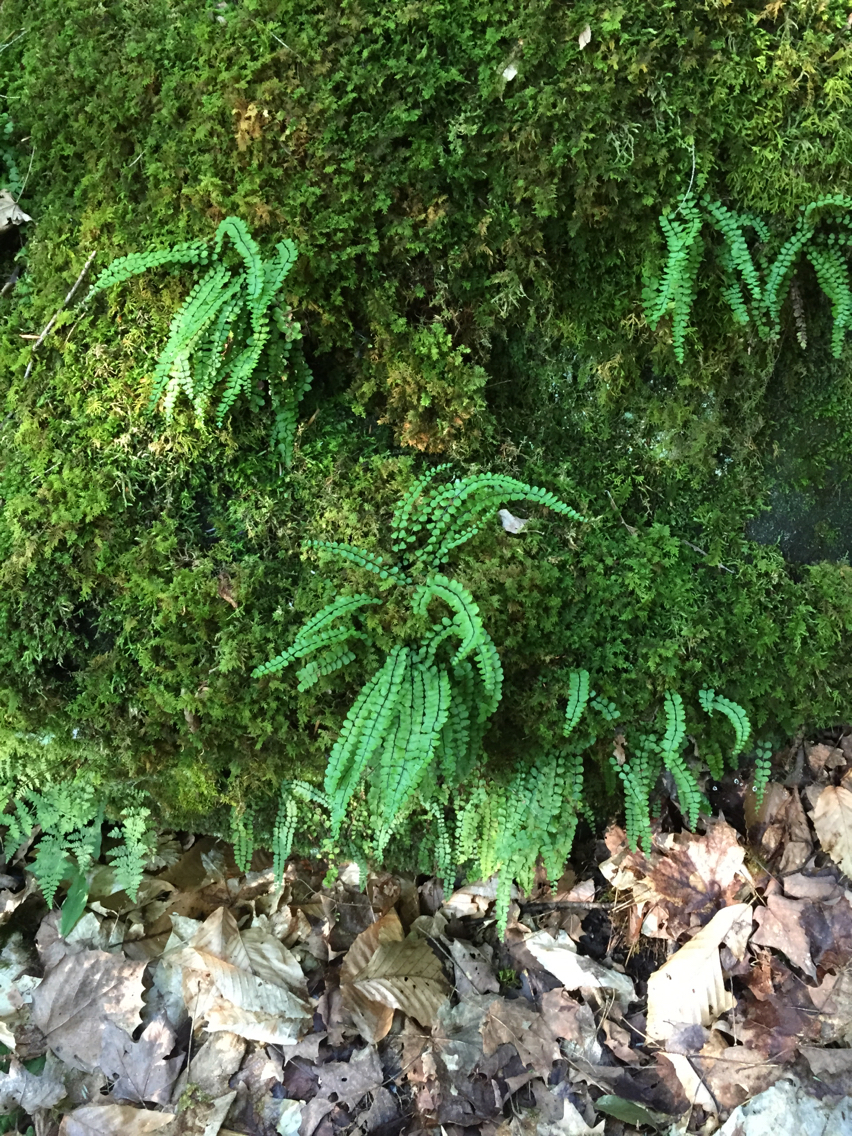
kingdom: Plantae
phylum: Tracheophyta
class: Polypodiopsida
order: Polypodiales
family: Aspleniaceae
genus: Asplenium
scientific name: Asplenium trichomanes
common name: Maidenhair spleenwort
